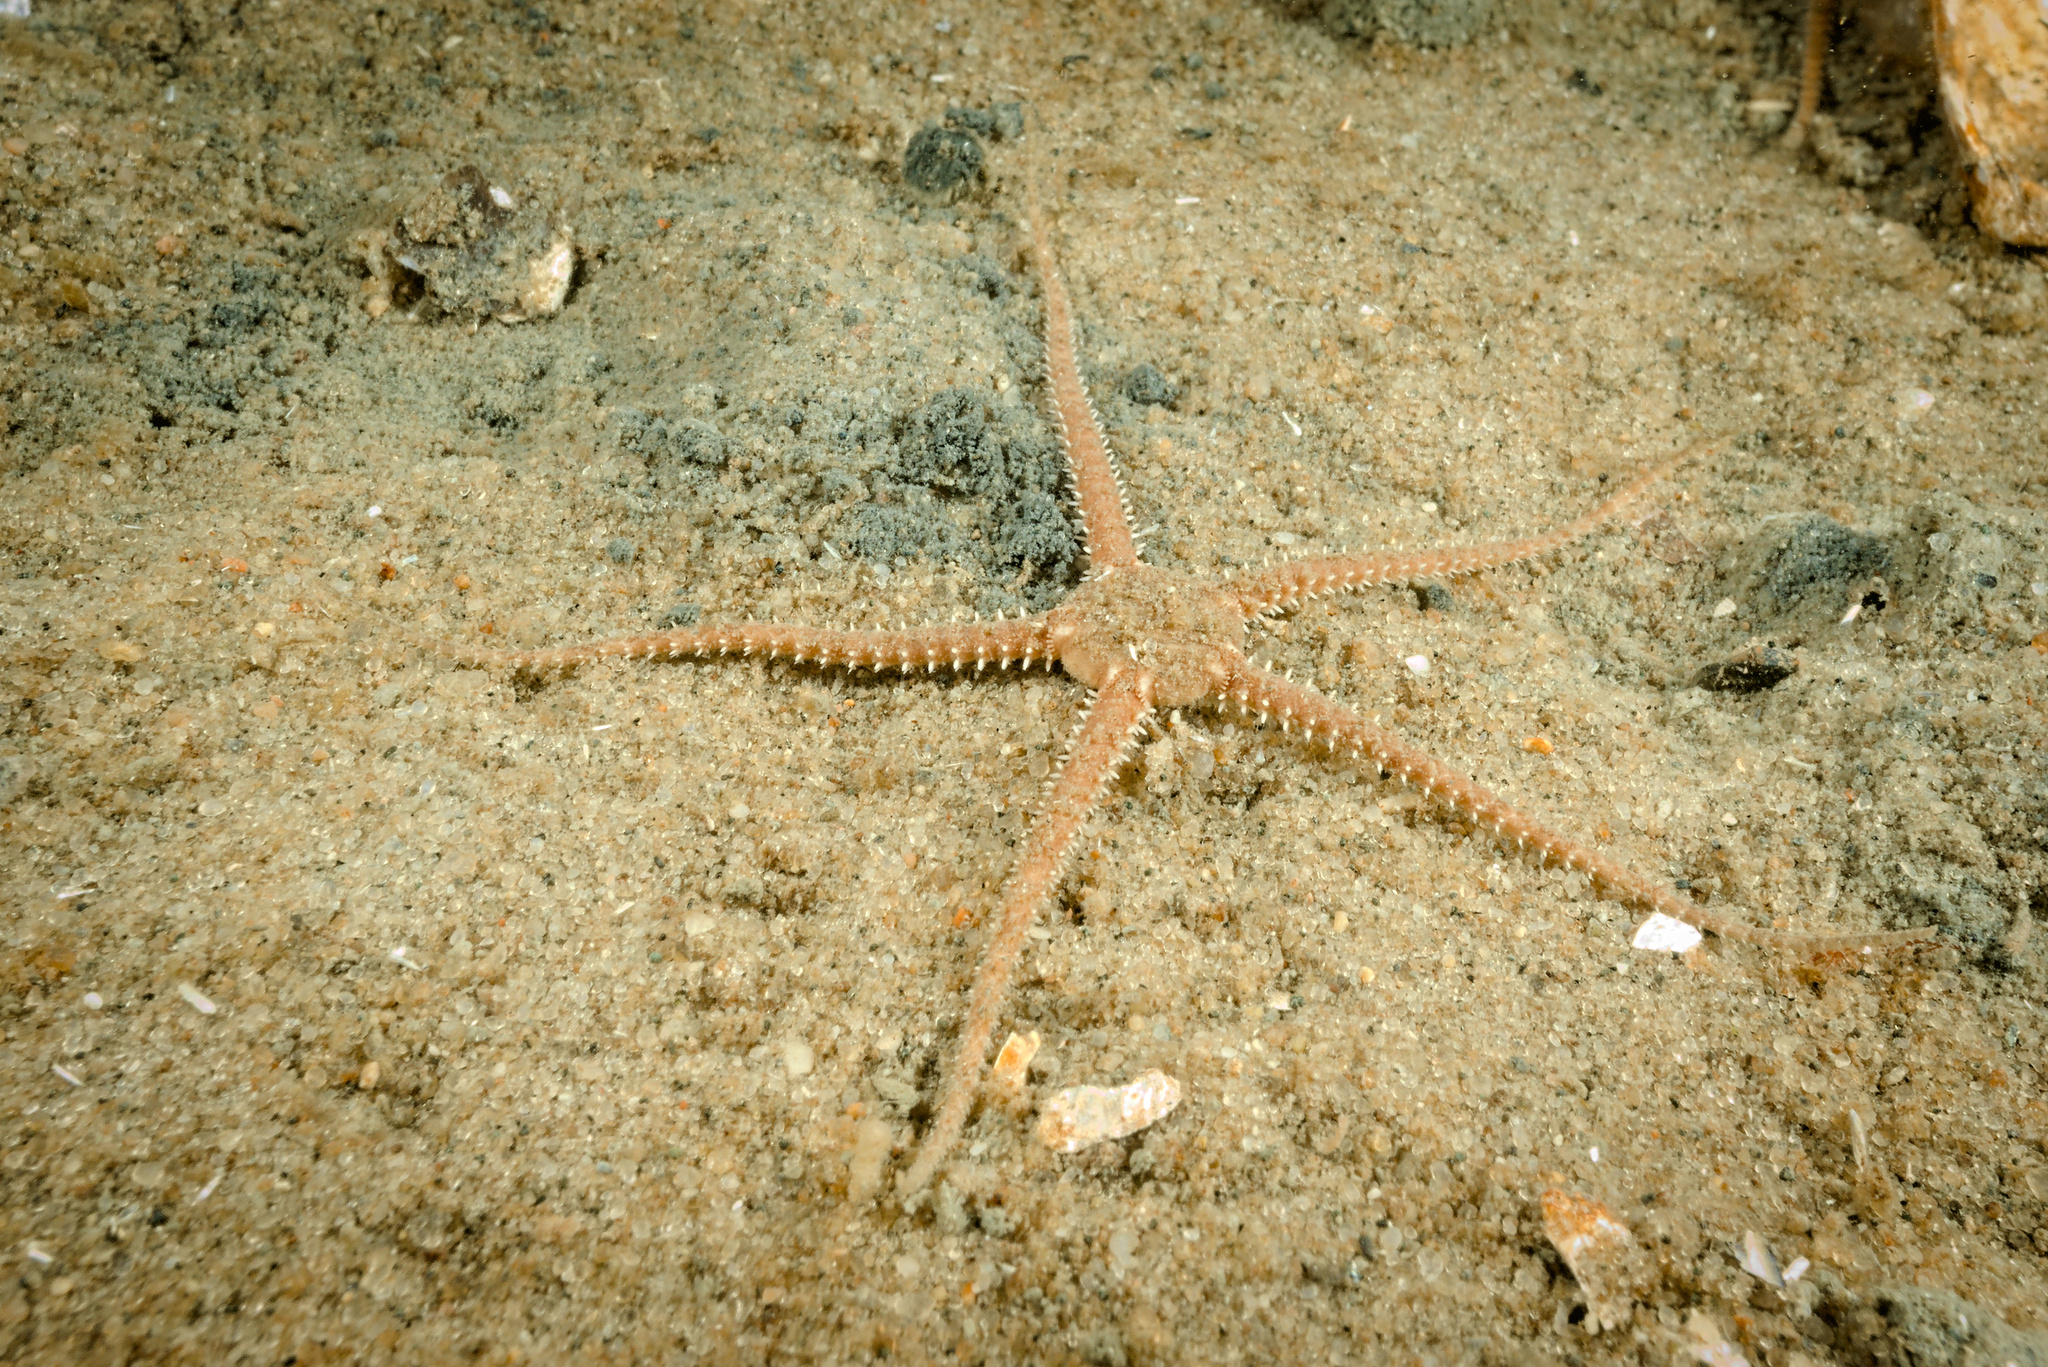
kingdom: Animalia
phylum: Echinodermata
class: Ophiuroidea
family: Ophiuridae
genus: Ophiura
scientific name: Ophiura albida
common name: Serpent's table brittlestar
